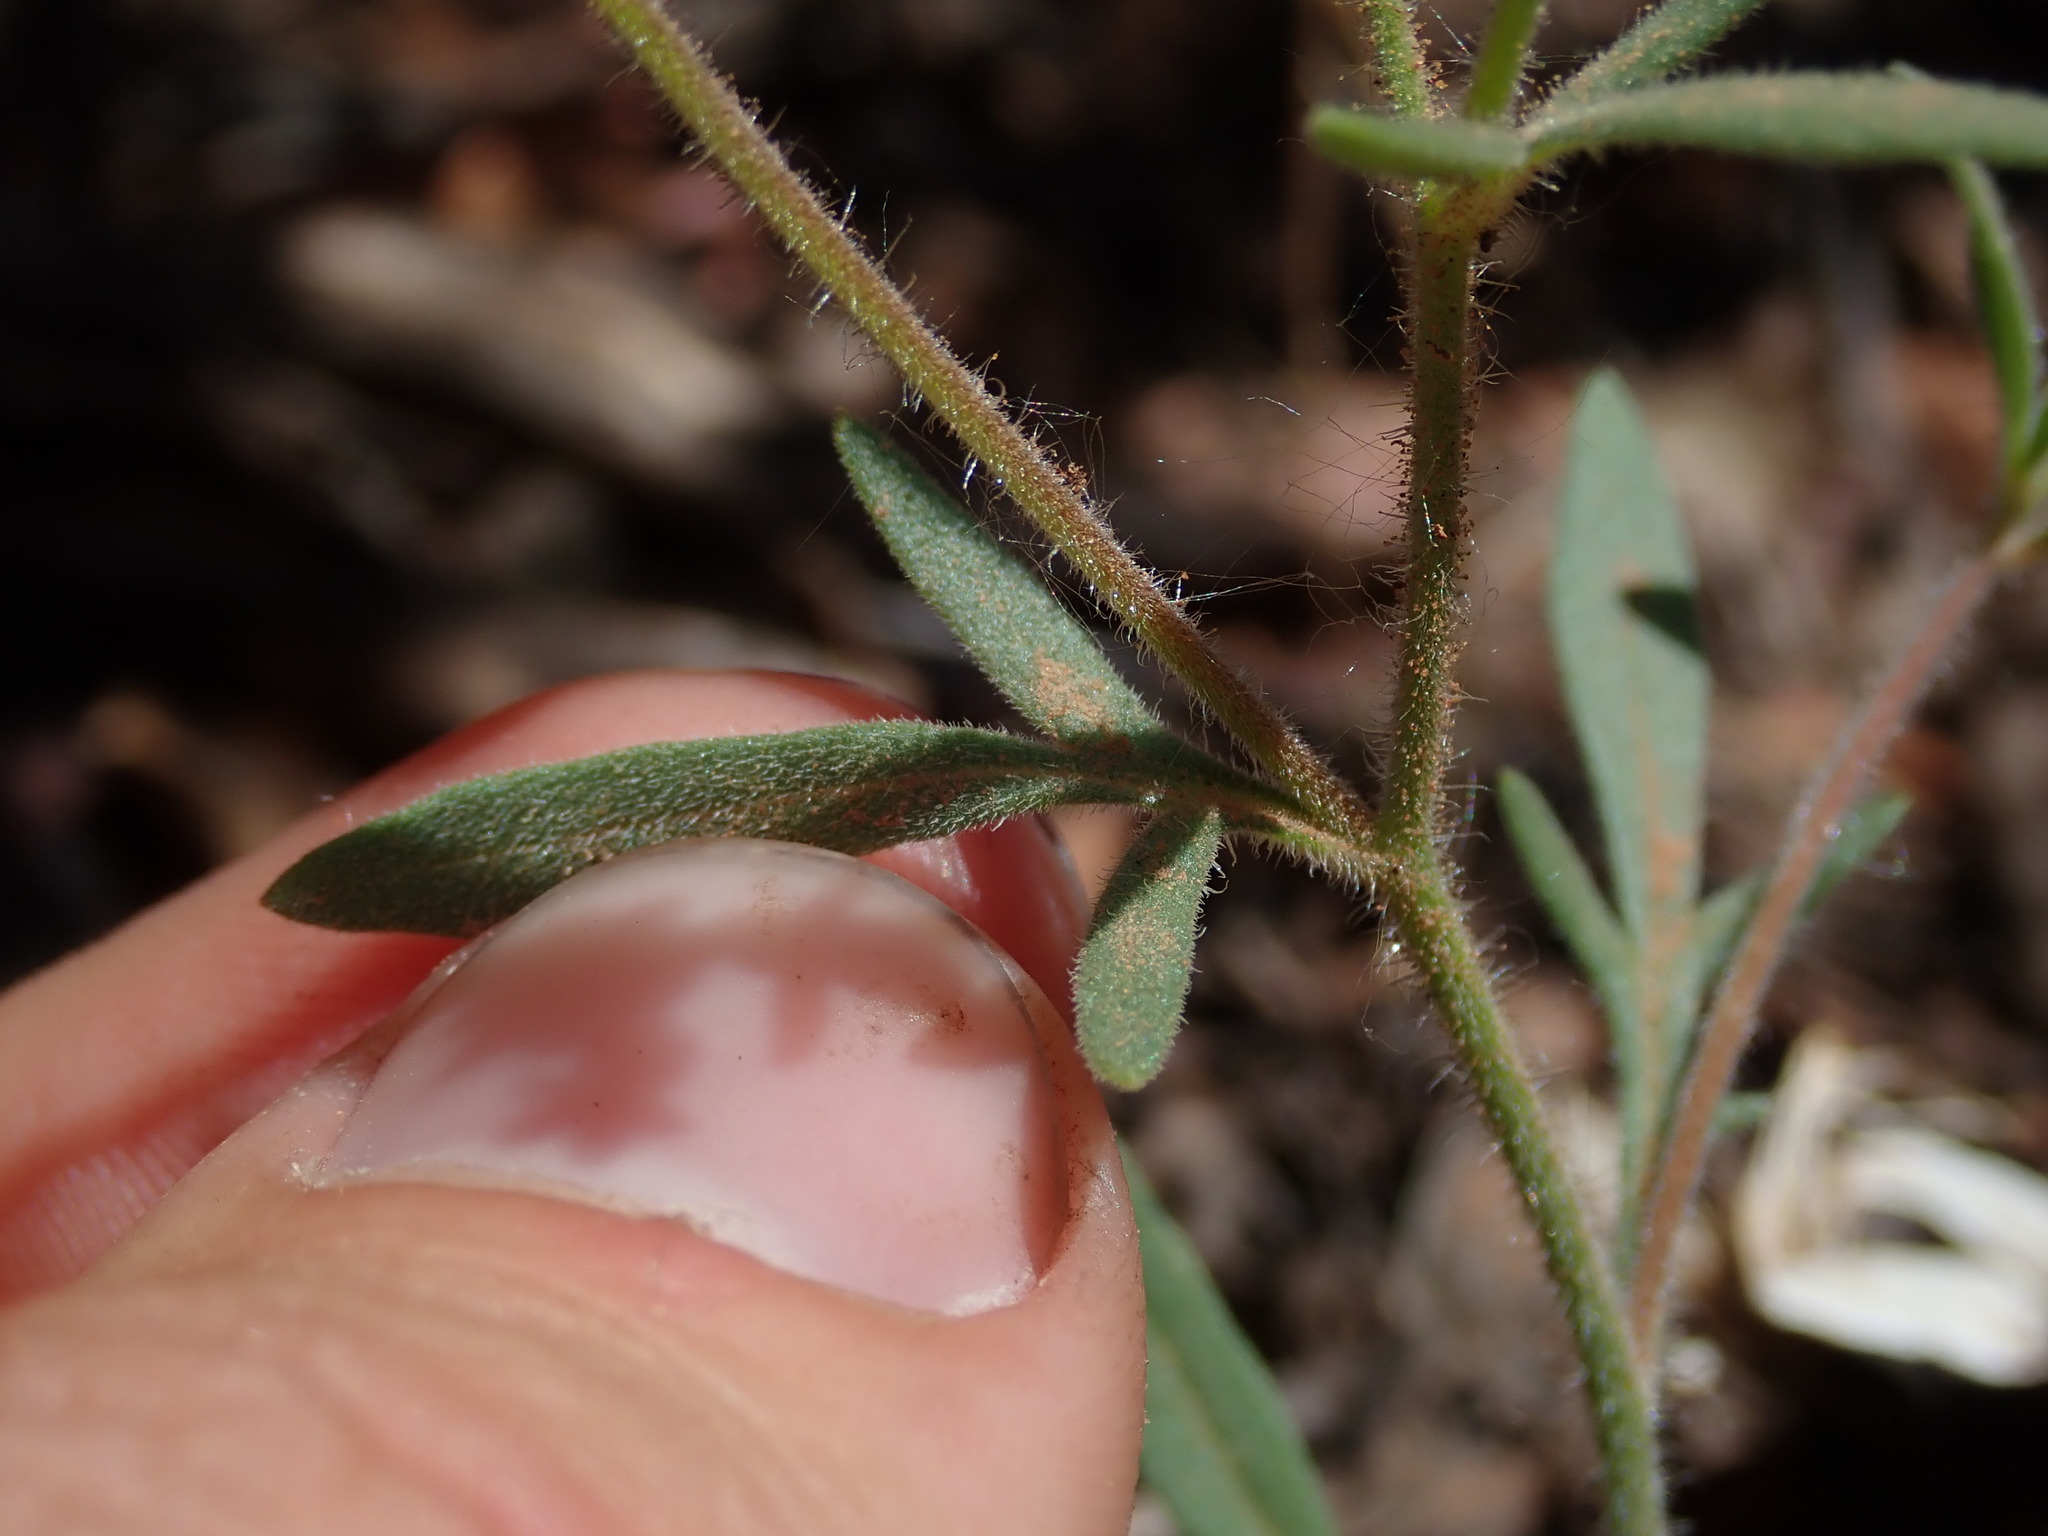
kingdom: Plantae
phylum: Tracheophyta
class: Magnoliopsida
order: Ericales
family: Polemoniaceae
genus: Allophyllum
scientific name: Allophyllum gilioides
